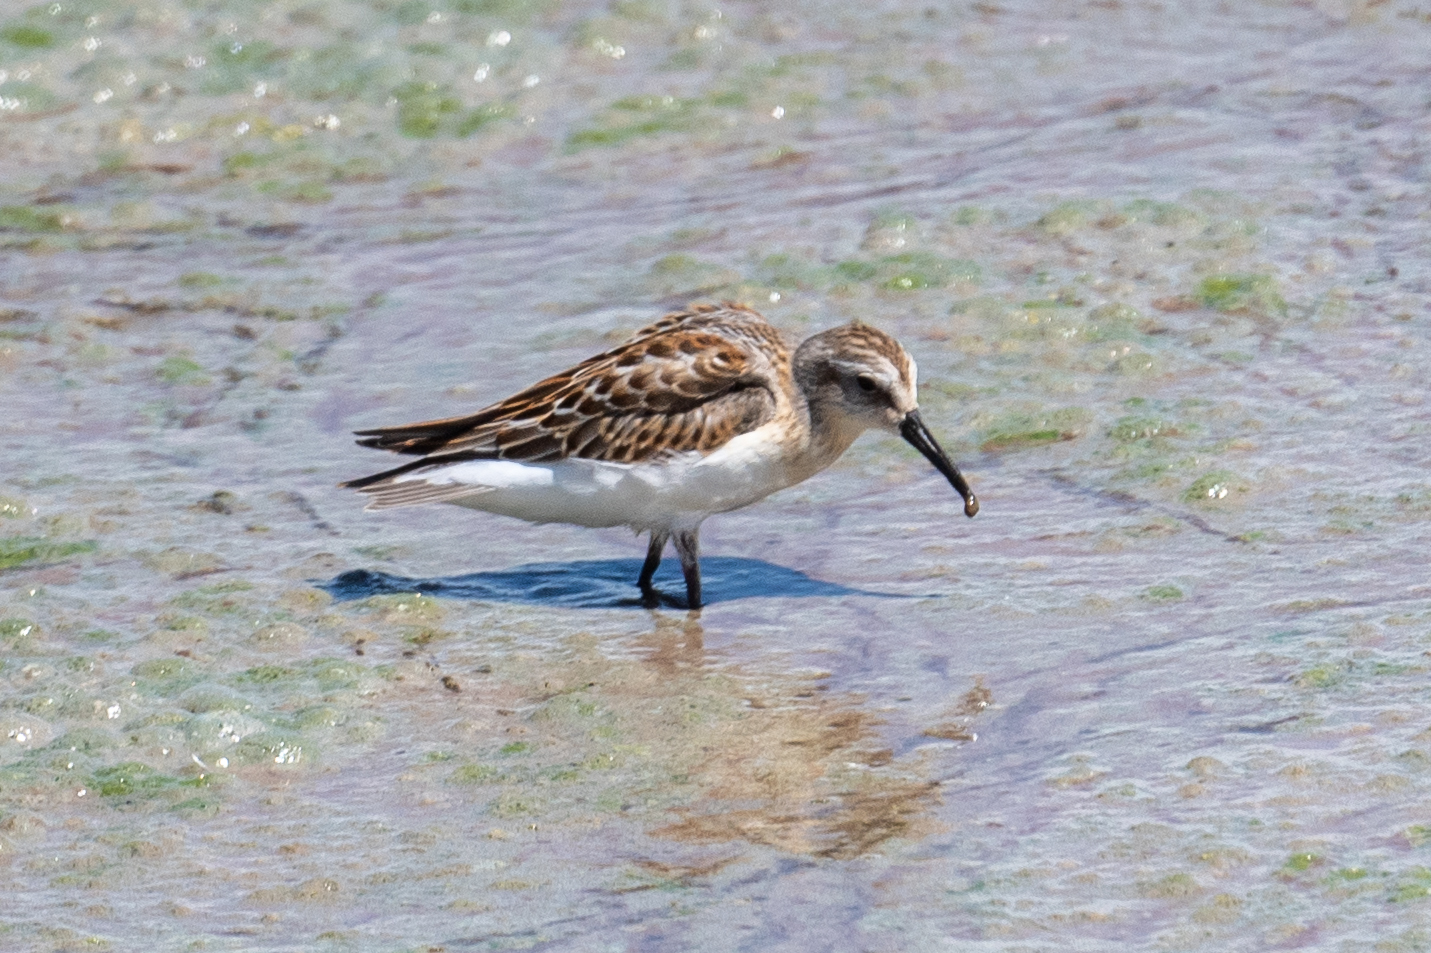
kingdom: Animalia
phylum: Chordata
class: Aves
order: Charadriiformes
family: Scolopacidae
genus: Calidris
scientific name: Calidris mauri
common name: Western sandpiper
